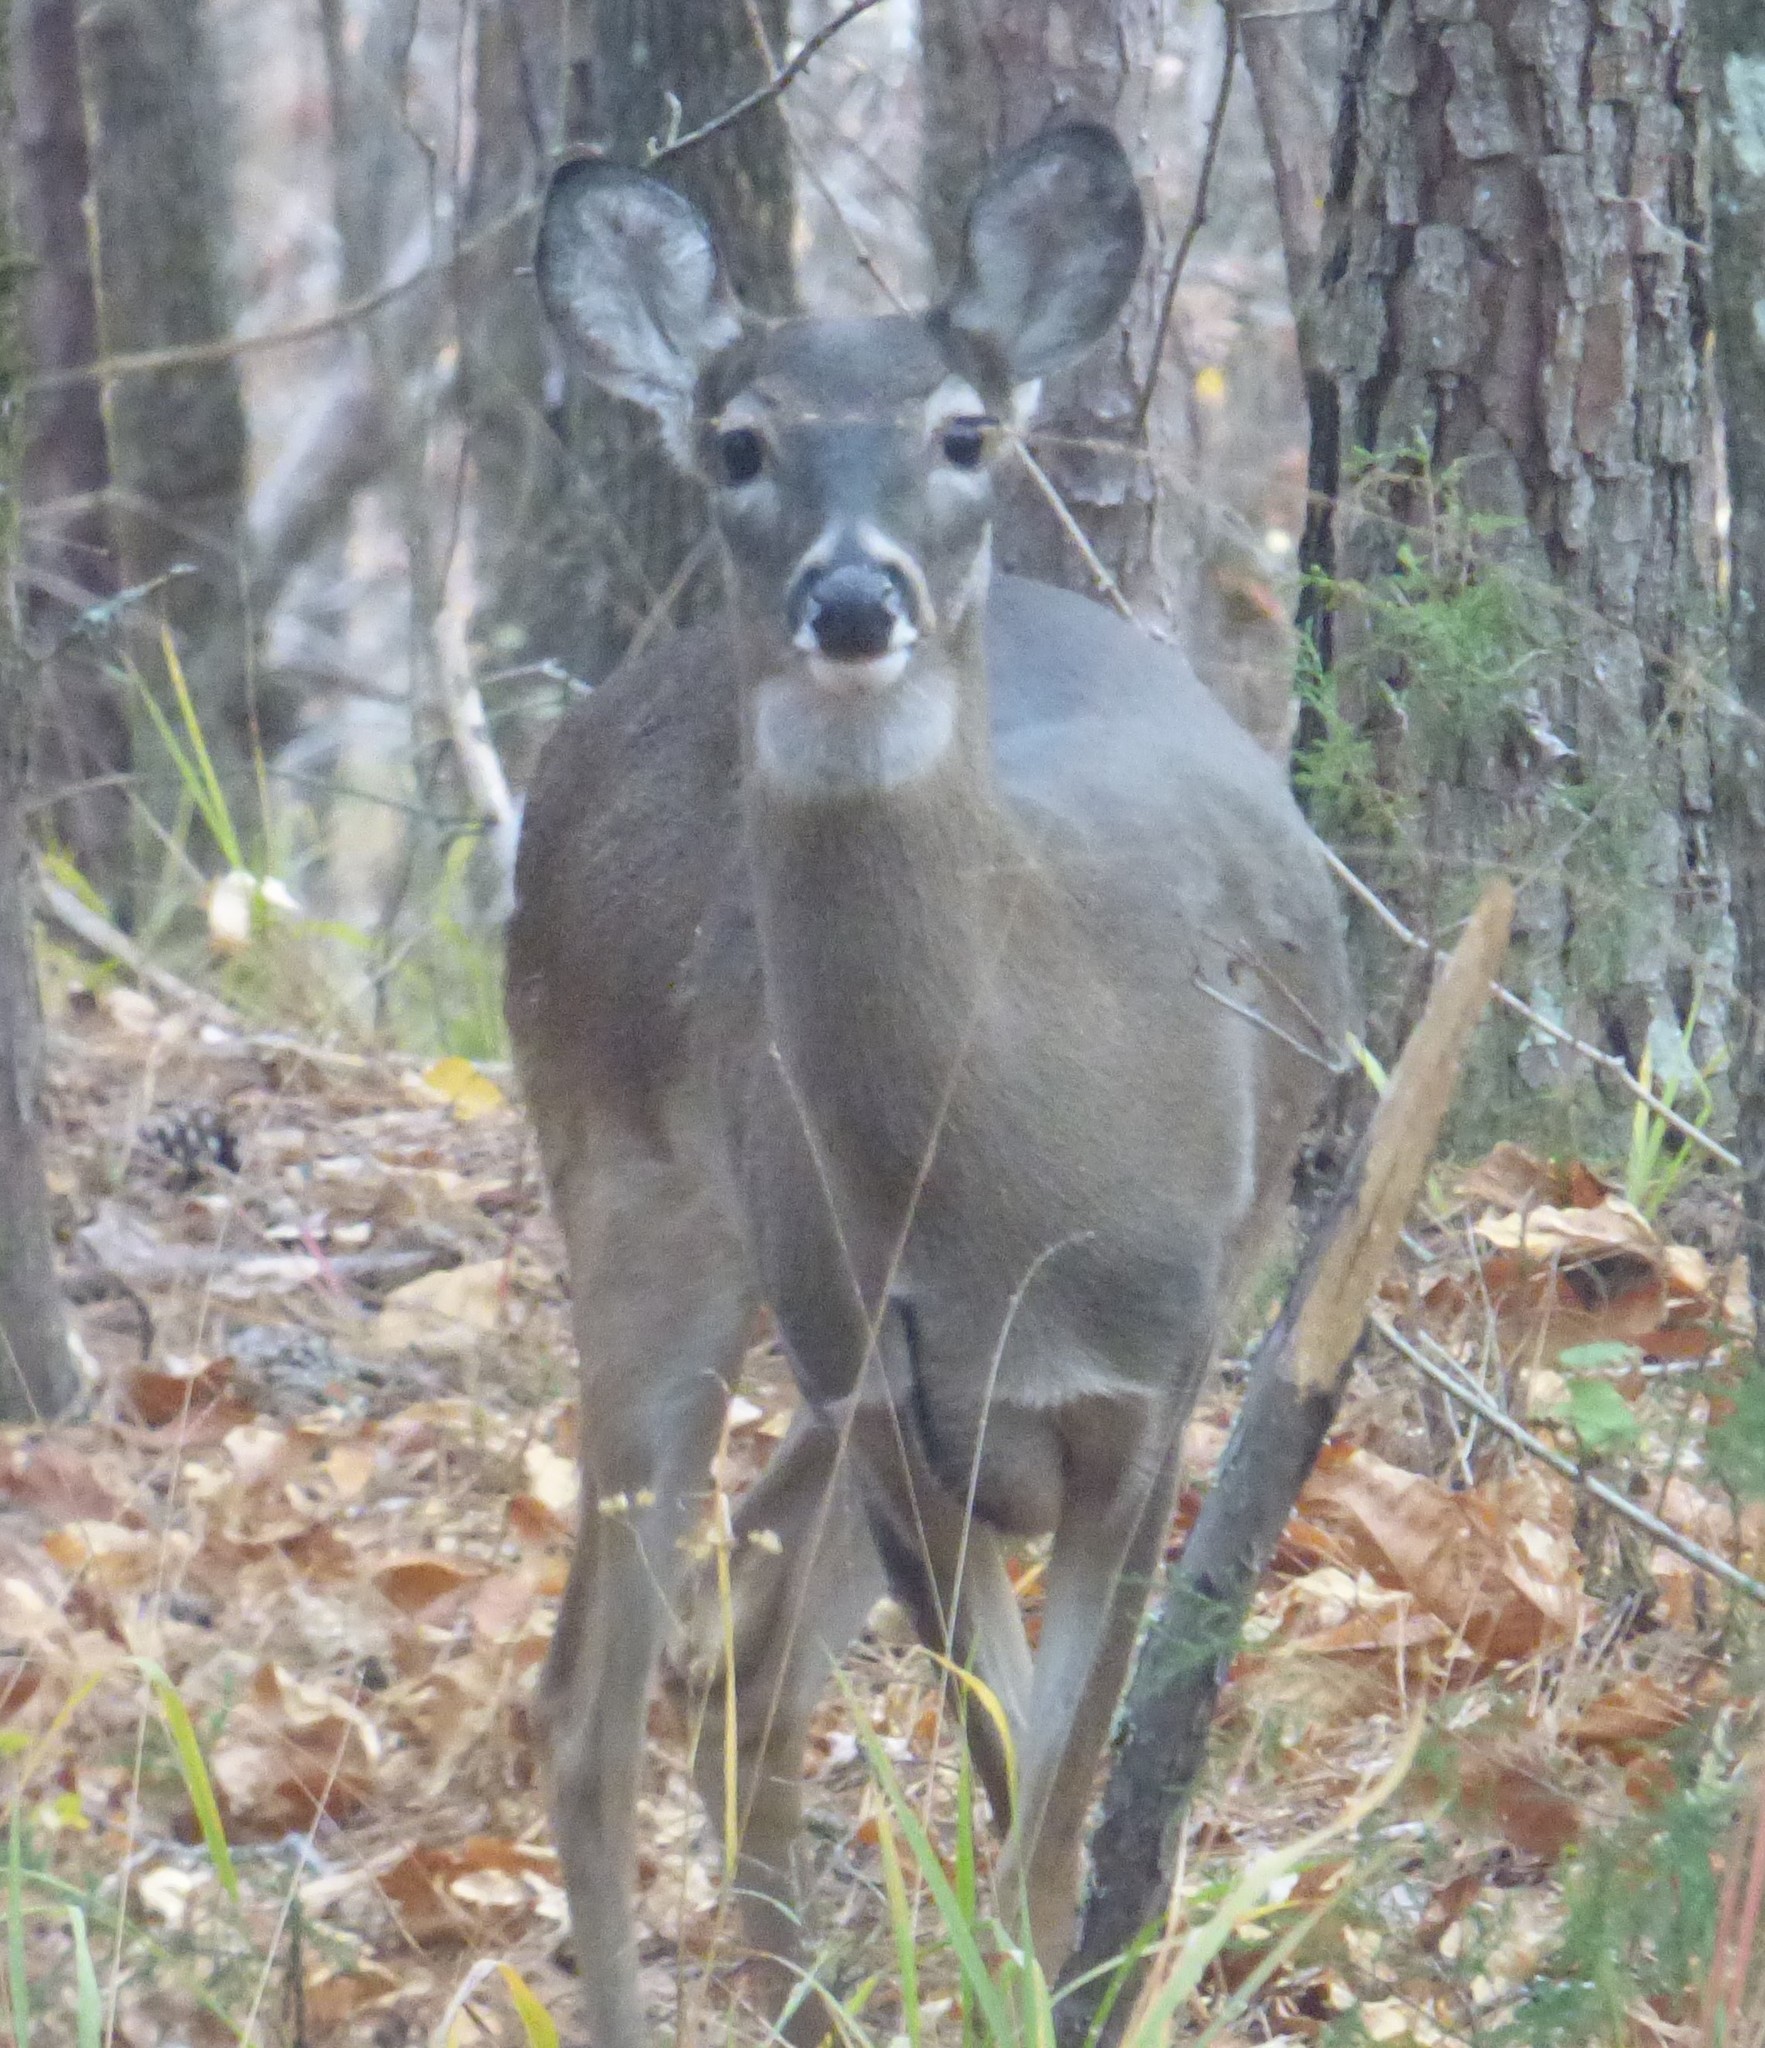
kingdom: Animalia
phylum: Chordata
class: Mammalia
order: Artiodactyla
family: Cervidae
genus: Odocoileus
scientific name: Odocoileus virginianus
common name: White-tailed deer
